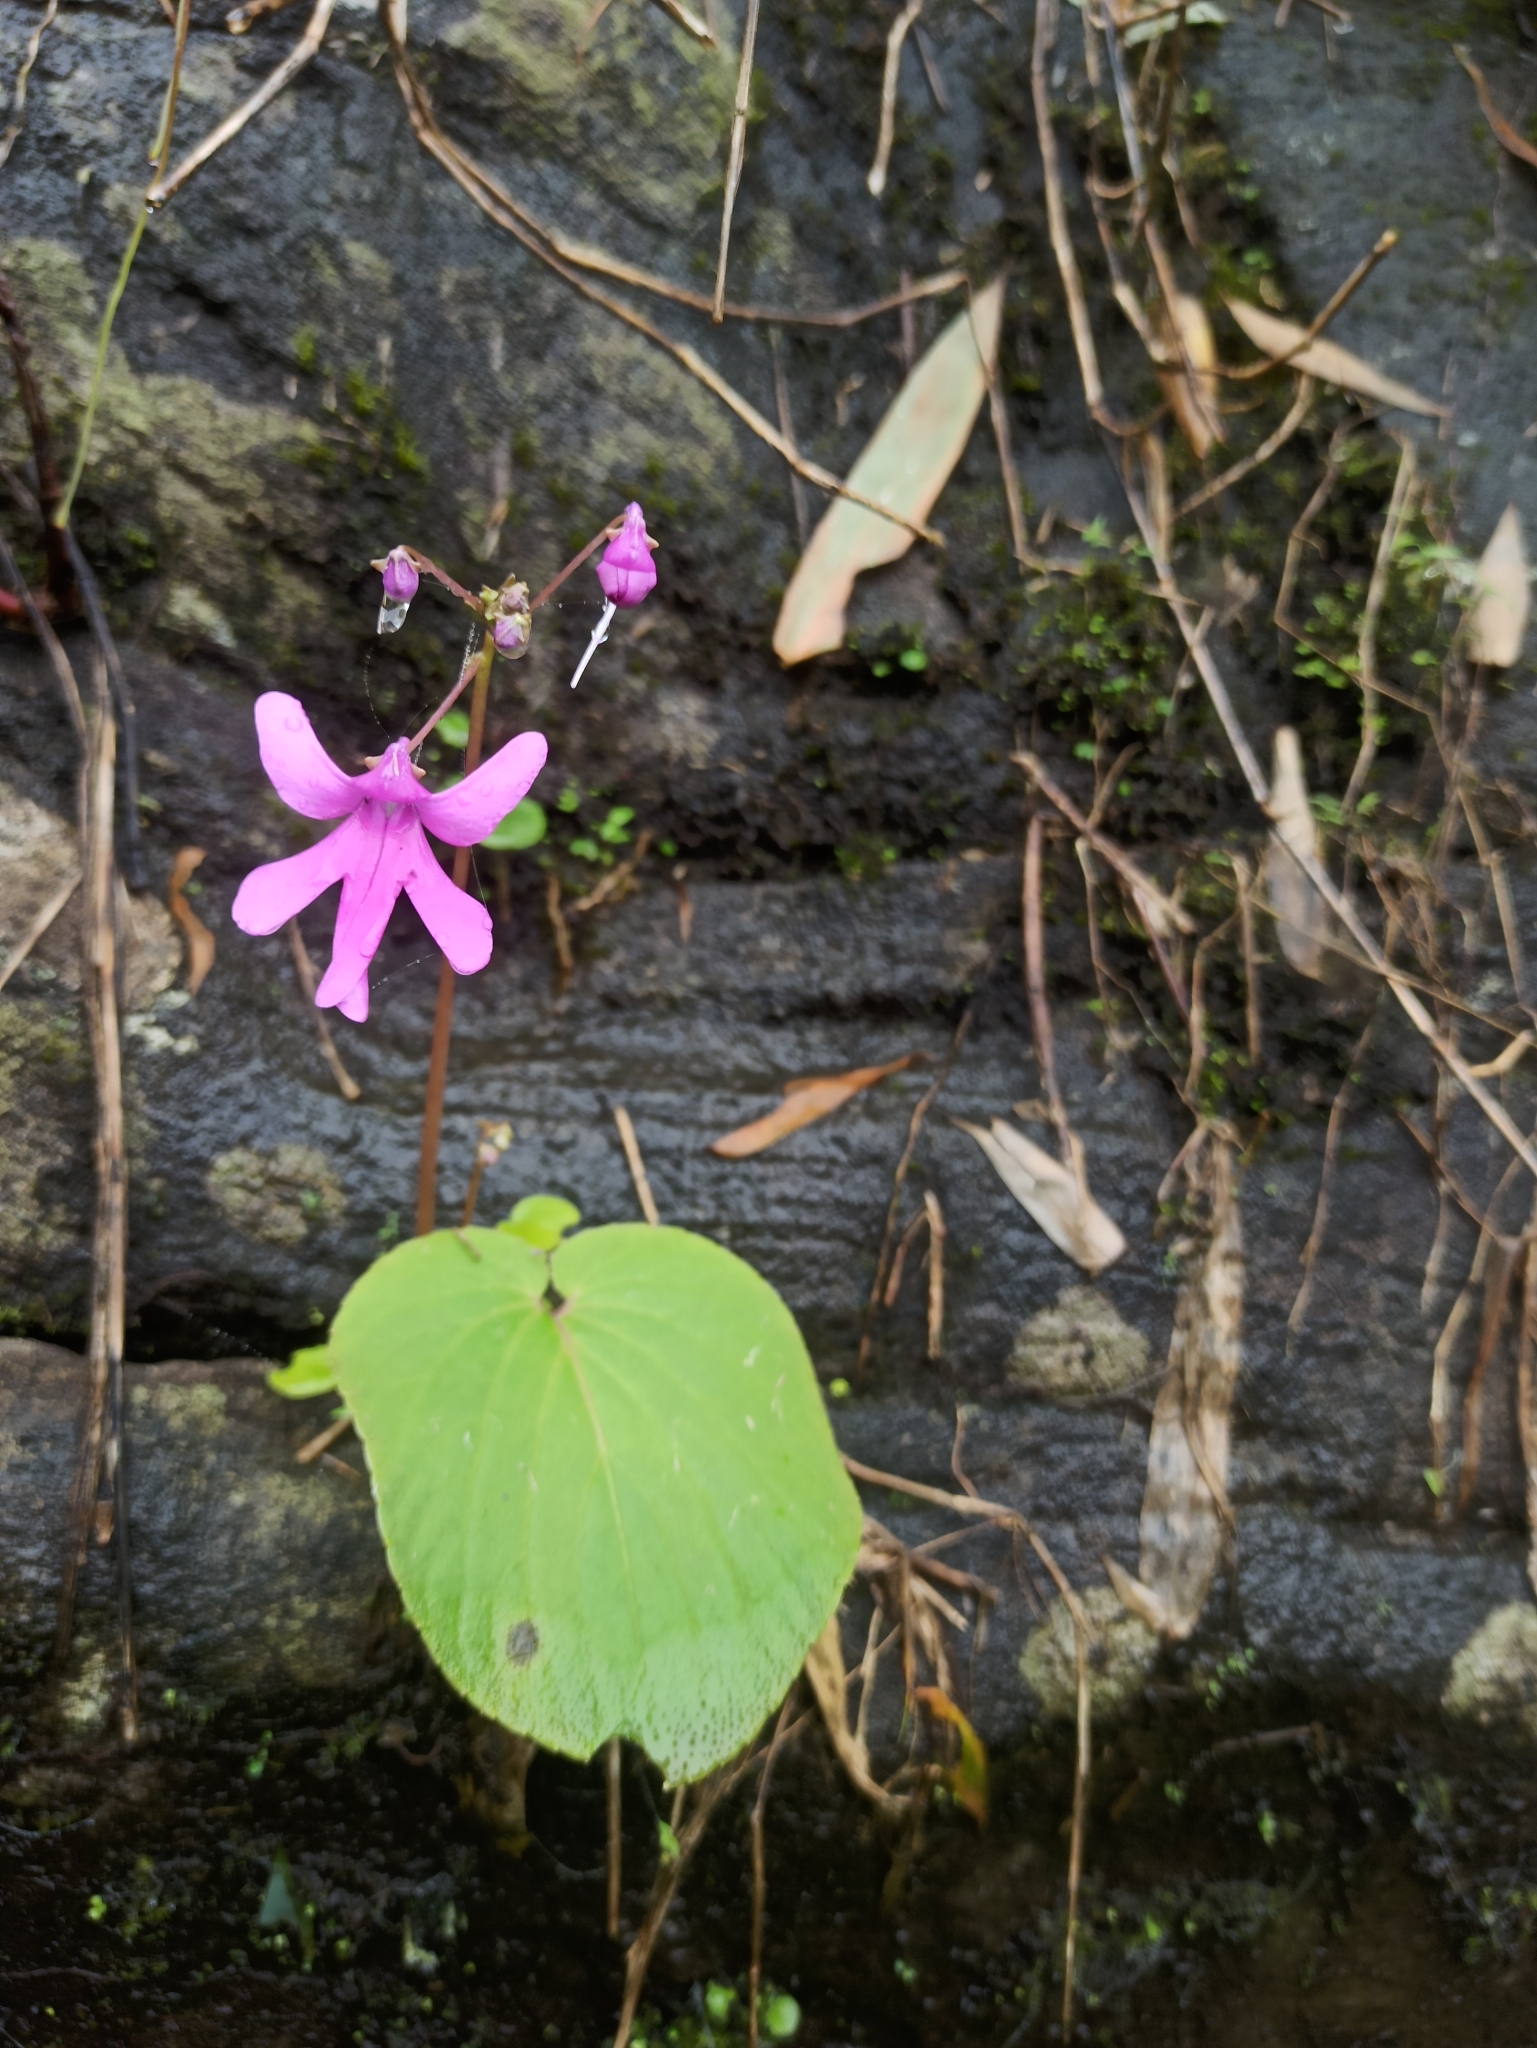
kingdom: Plantae
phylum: Tracheophyta
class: Magnoliopsida
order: Ericales
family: Balsaminaceae
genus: Impatiens
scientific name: Impatiens scapiflora
